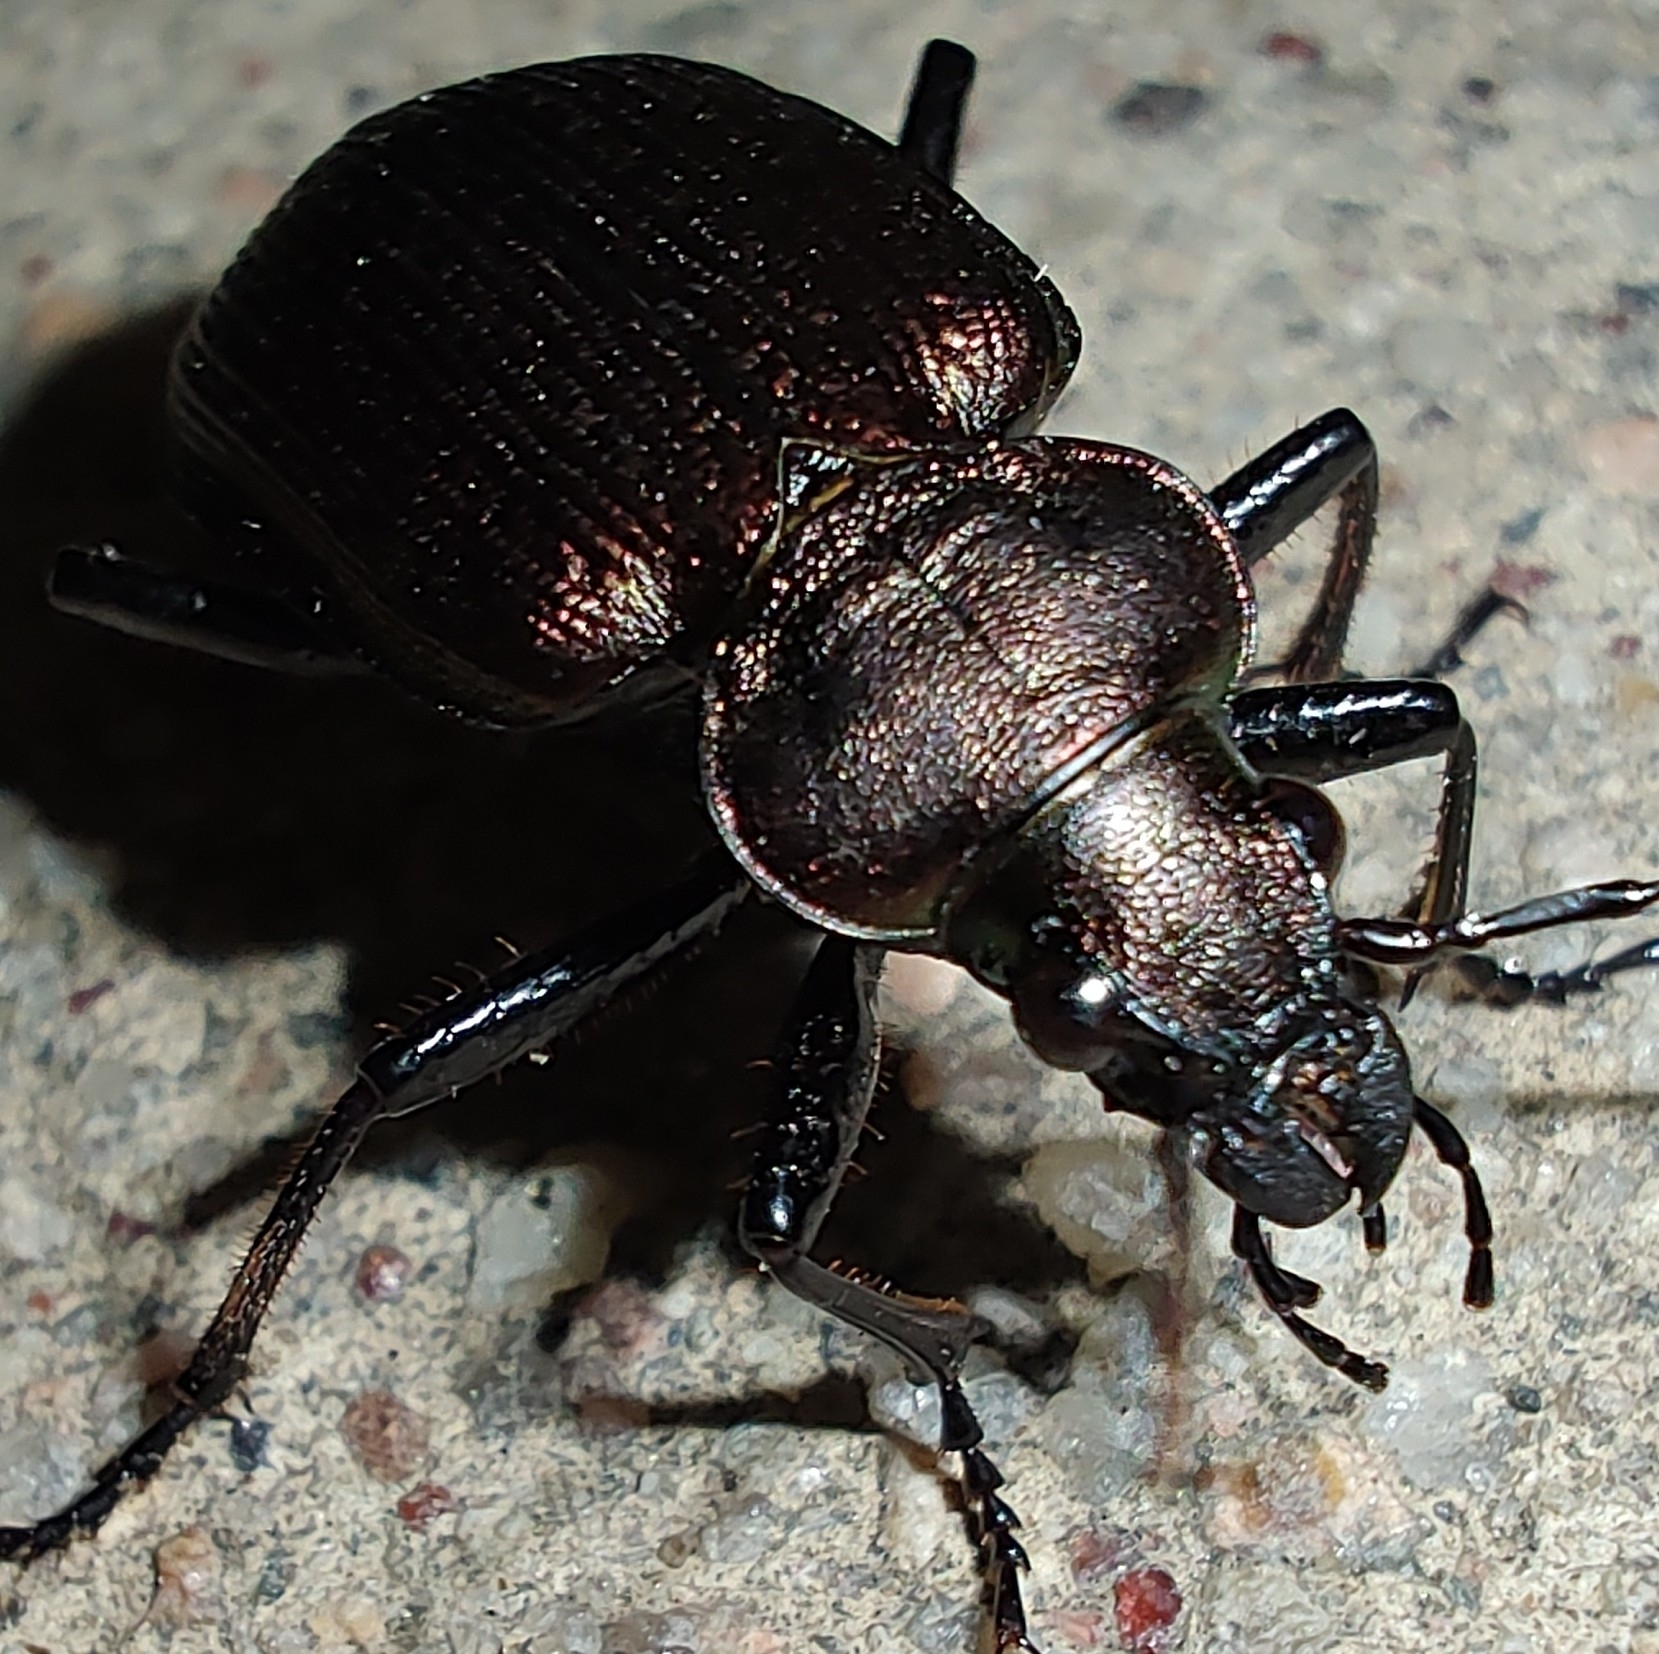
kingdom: Animalia
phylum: Arthropoda
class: Insecta
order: Coleoptera
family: Carabidae
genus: Calosoma
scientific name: Calosoma argentinense
